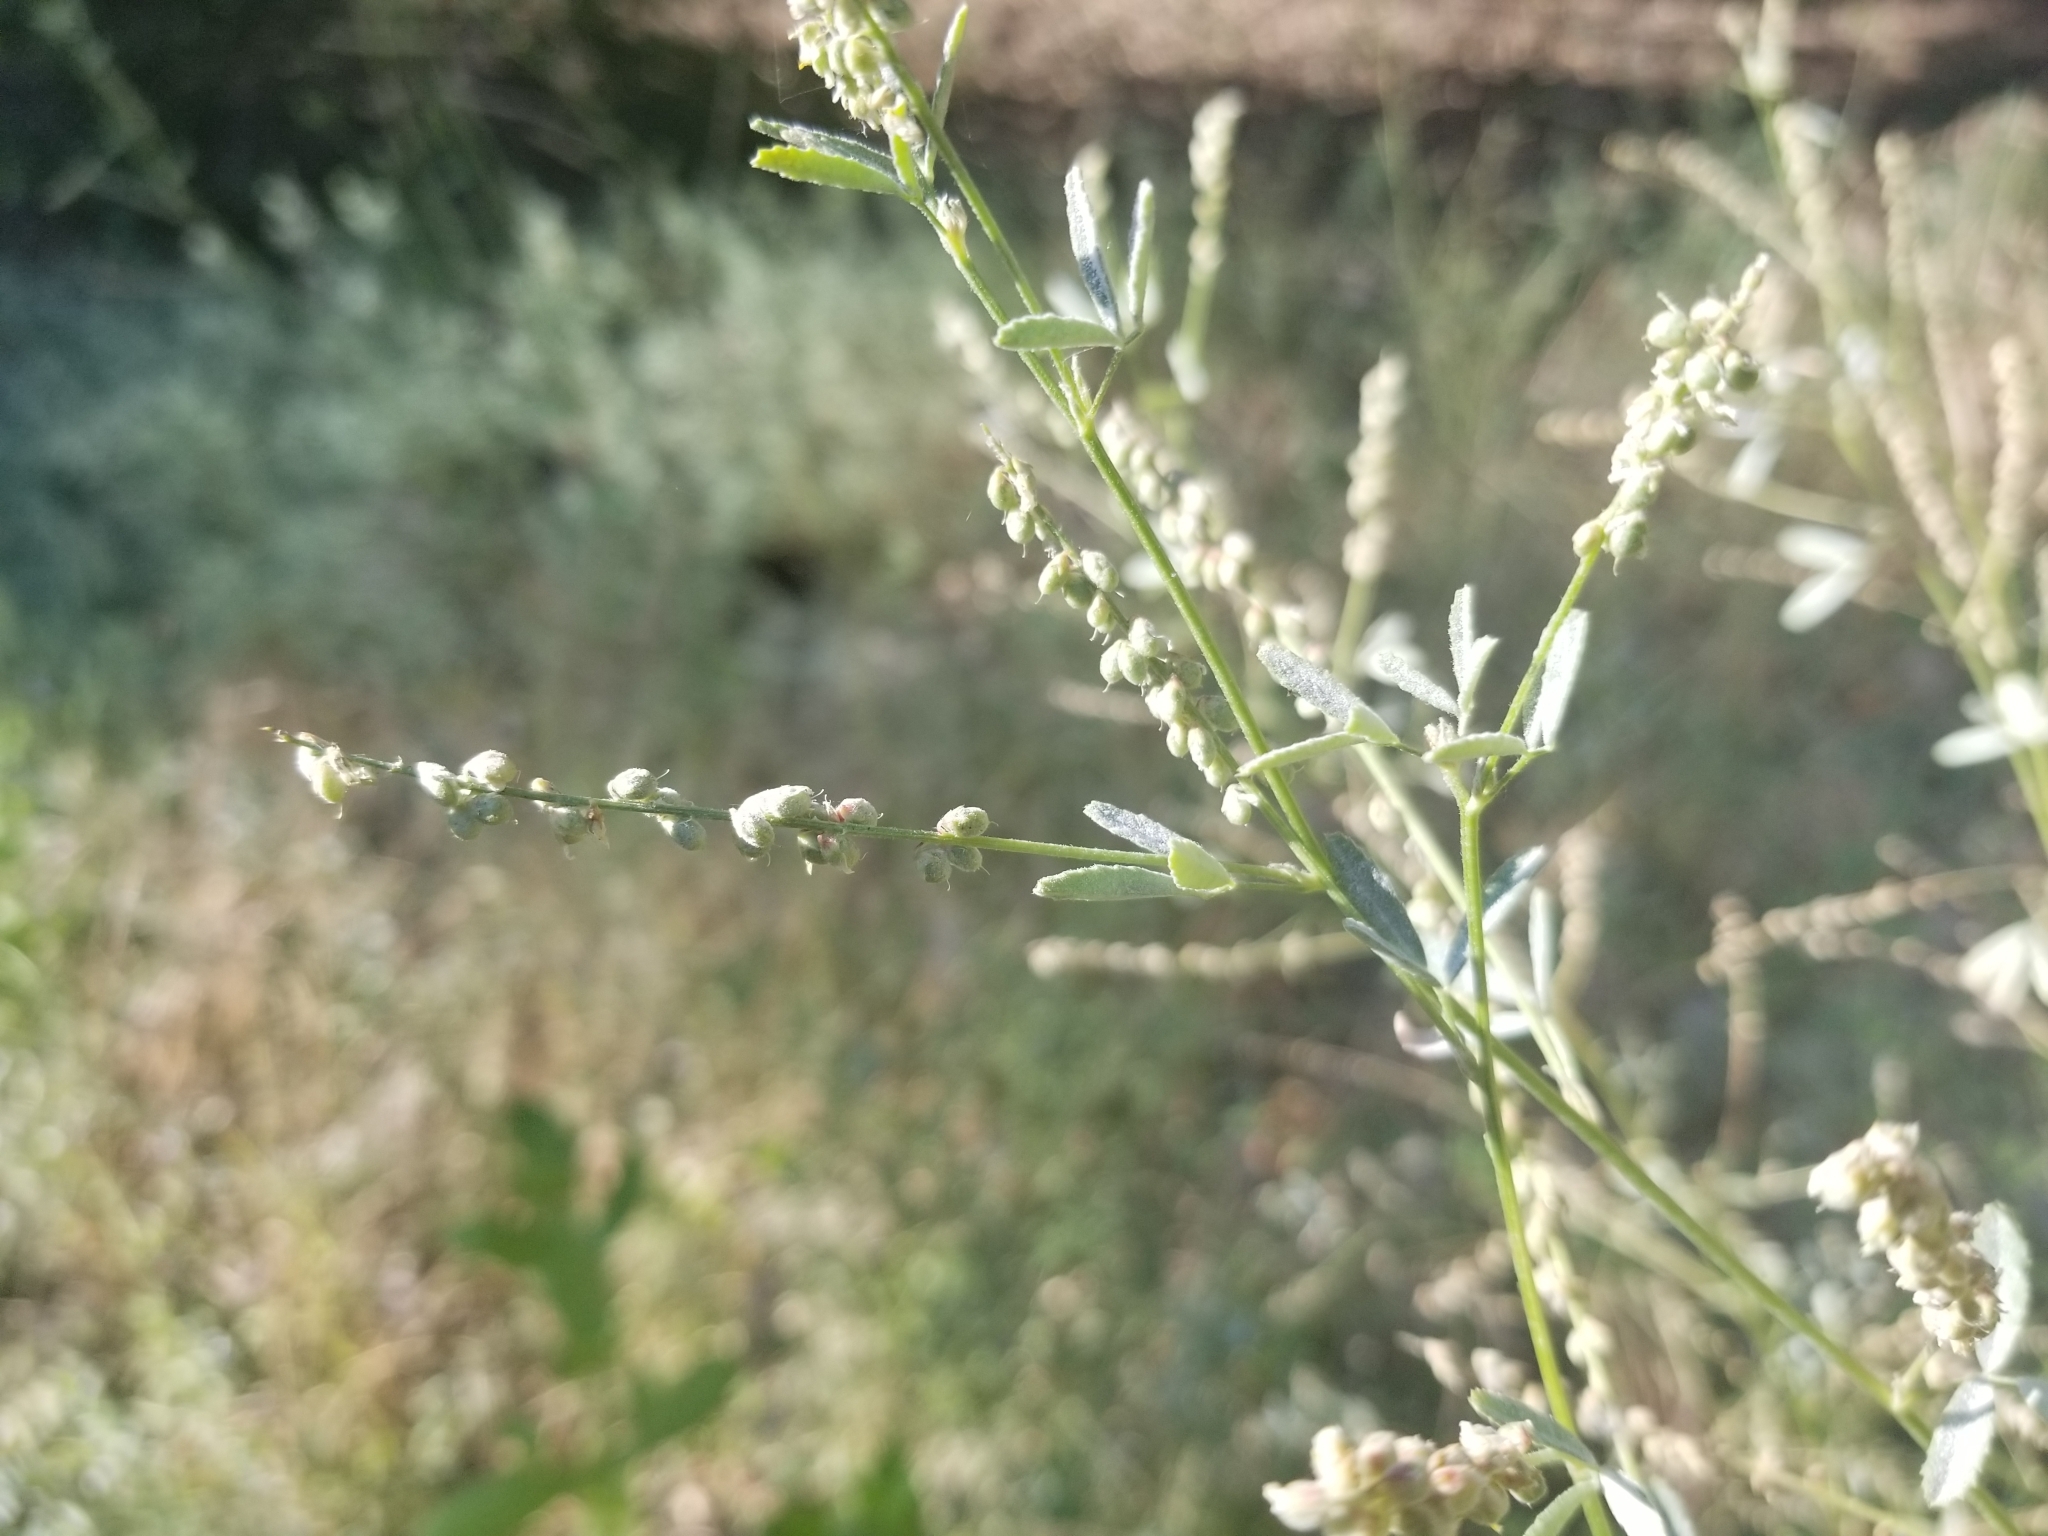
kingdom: Plantae
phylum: Tracheophyta
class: Magnoliopsida
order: Fabales
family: Fabaceae
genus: Melilotus
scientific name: Melilotus albus
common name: White melilot
